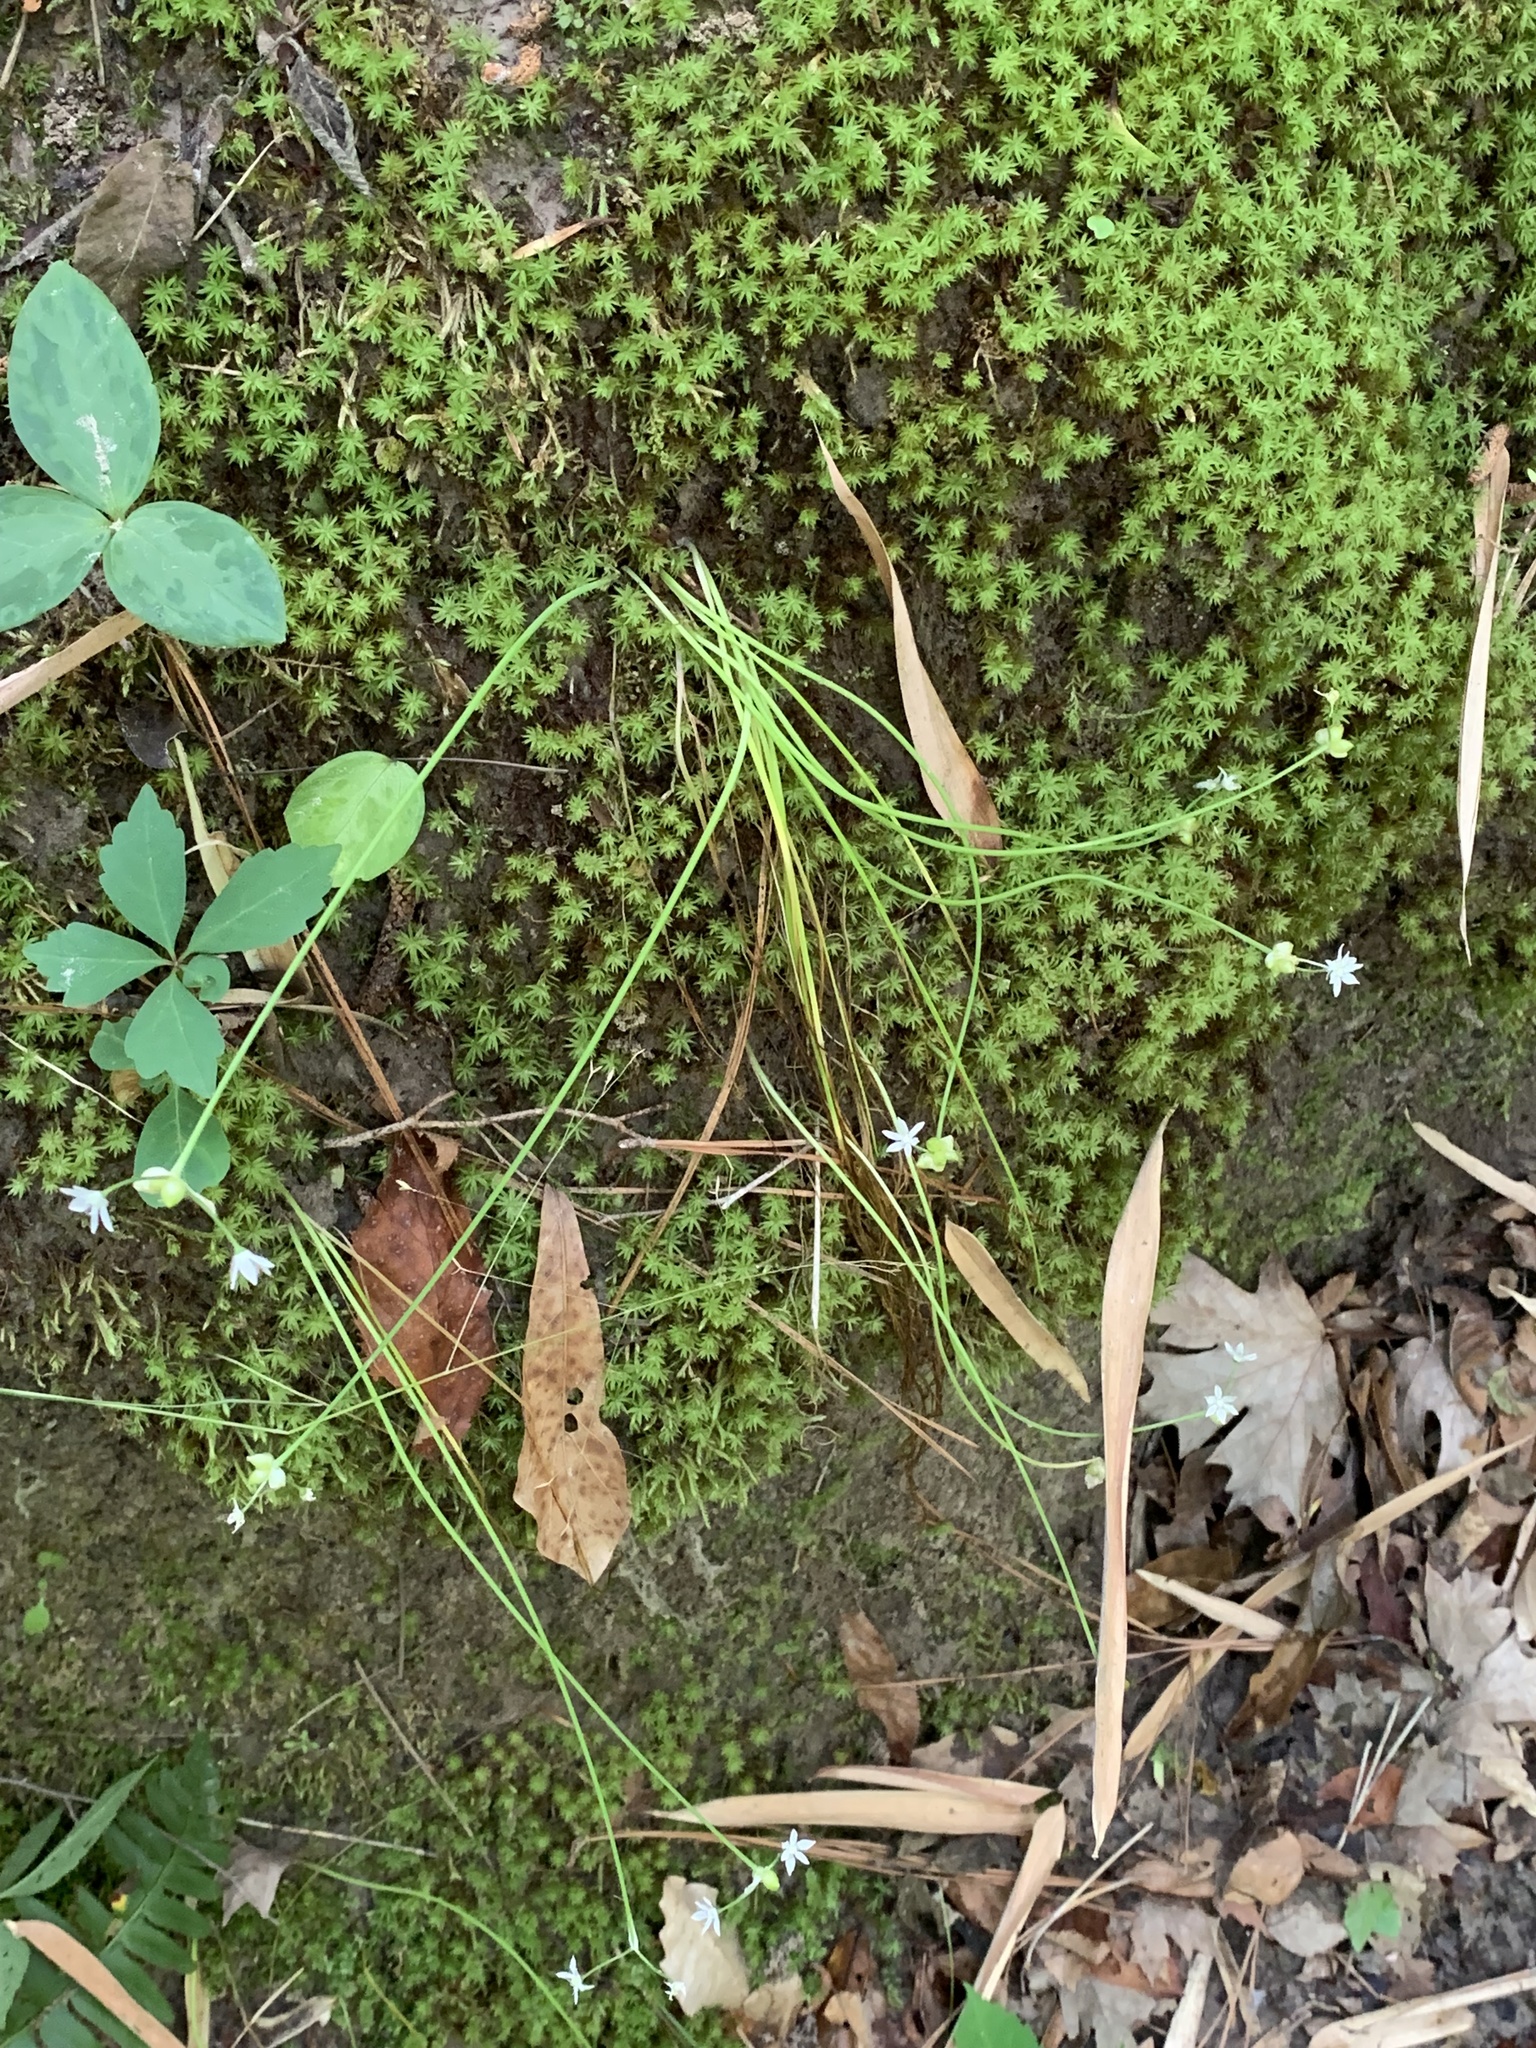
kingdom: Plantae
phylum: Tracheophyta
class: Liliopsida
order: Asparagales
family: Amaryllidaceae
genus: Allium
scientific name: Allium canadense
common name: Meadow garlic
